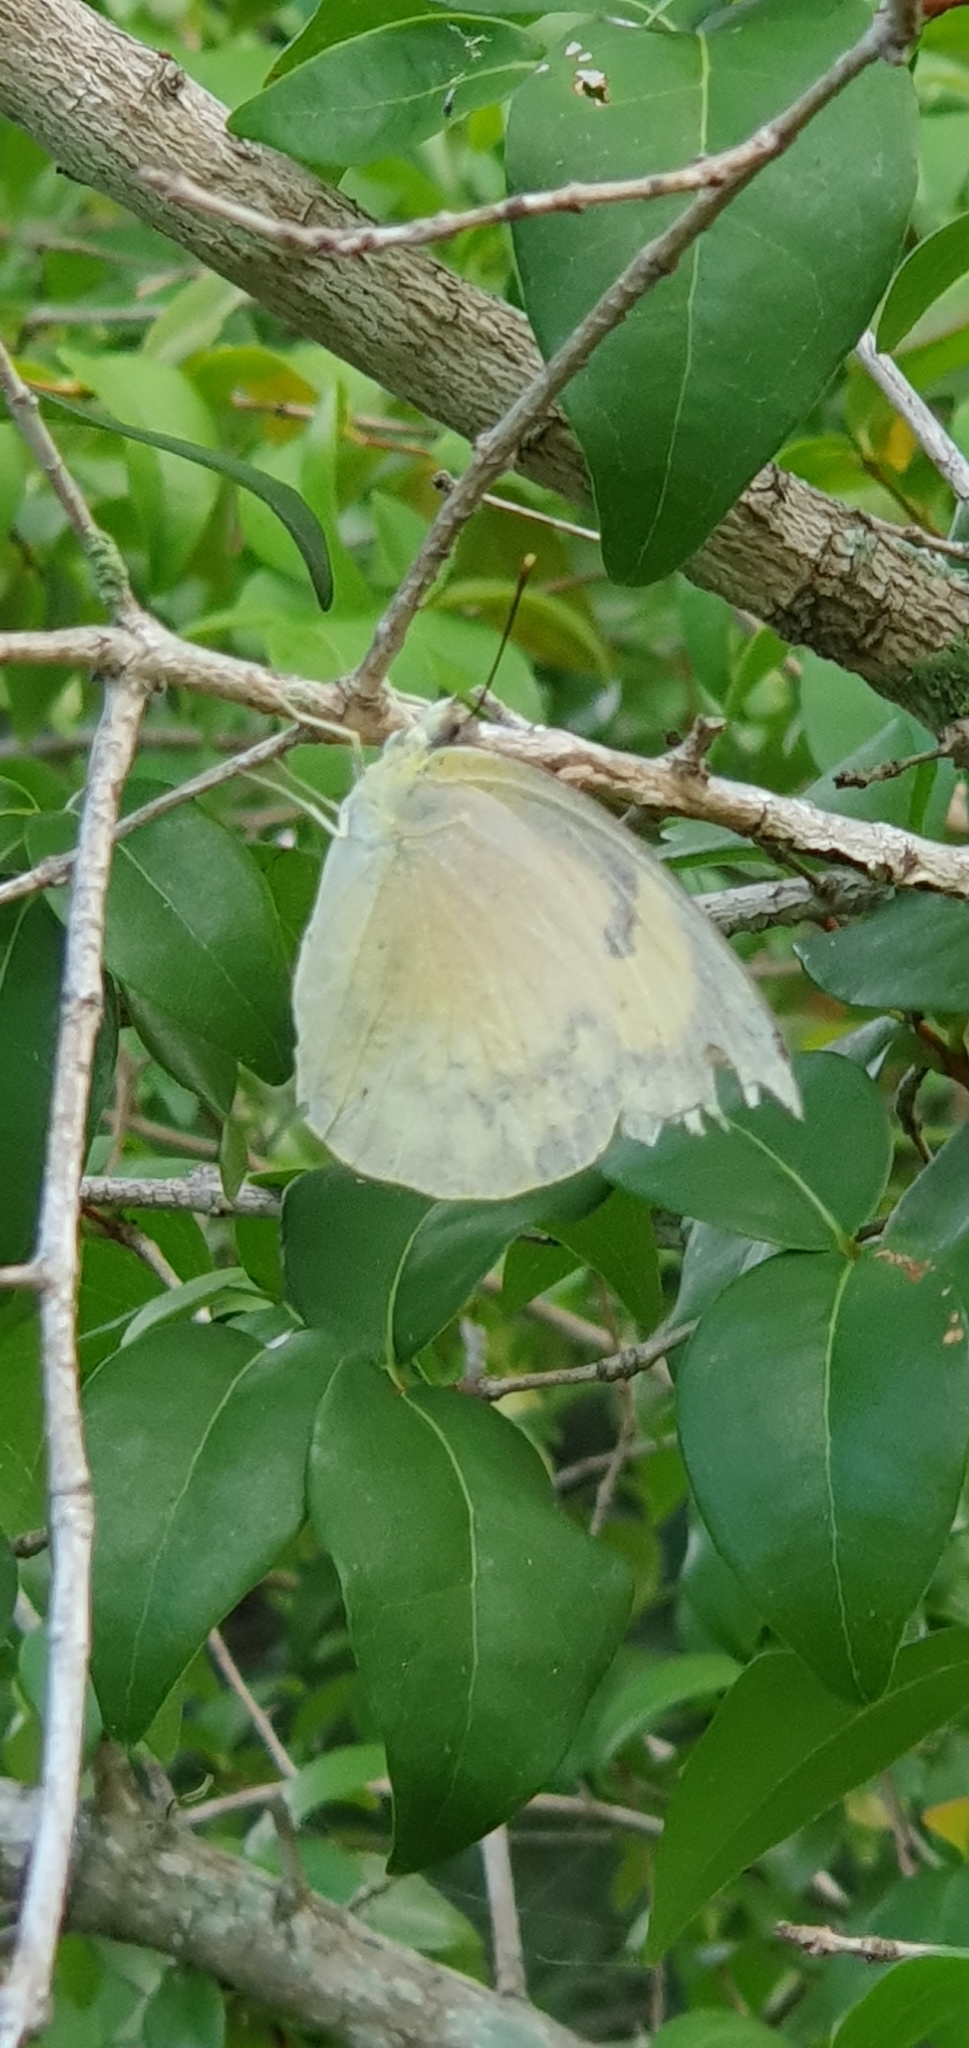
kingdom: Animalia
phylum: Arthropoda
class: Insecta
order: Lepidoptera
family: Pieridae
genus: Catopsilia
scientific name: Catopsilia pomona
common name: Common emigrant
